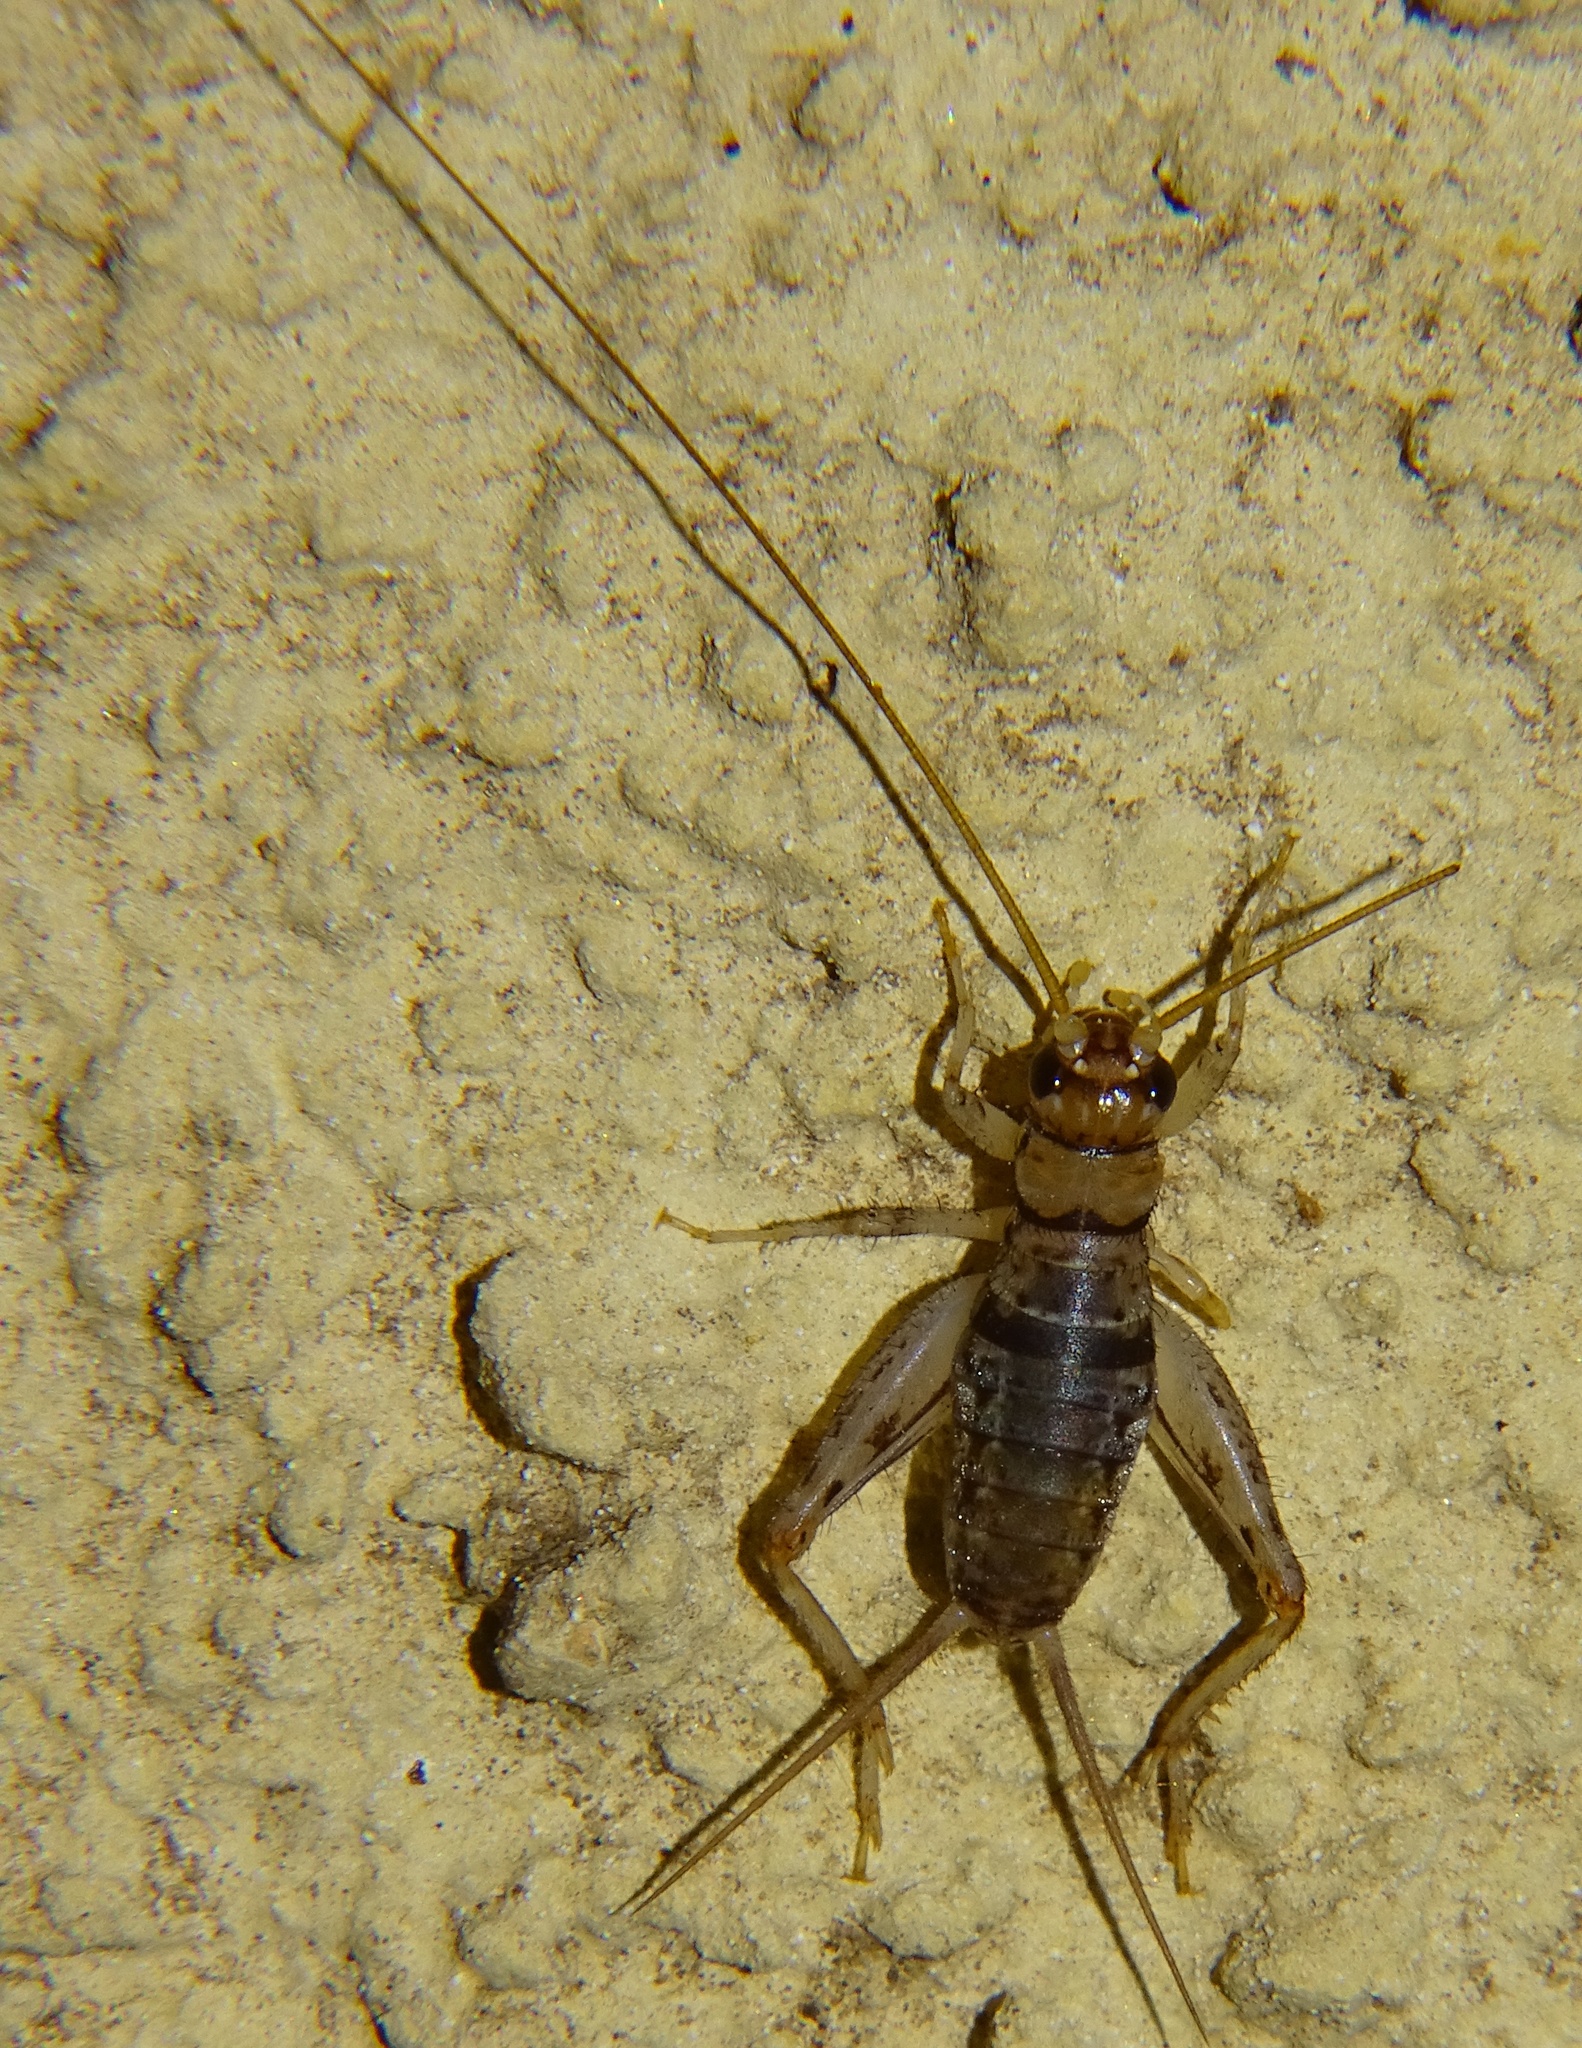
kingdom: Animalia
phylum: Arthropoda
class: Insecta
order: Orthoptera
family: Gryllidae
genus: Gryllodes
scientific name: Gryllodes sigillatus
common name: Tropical house cricket
